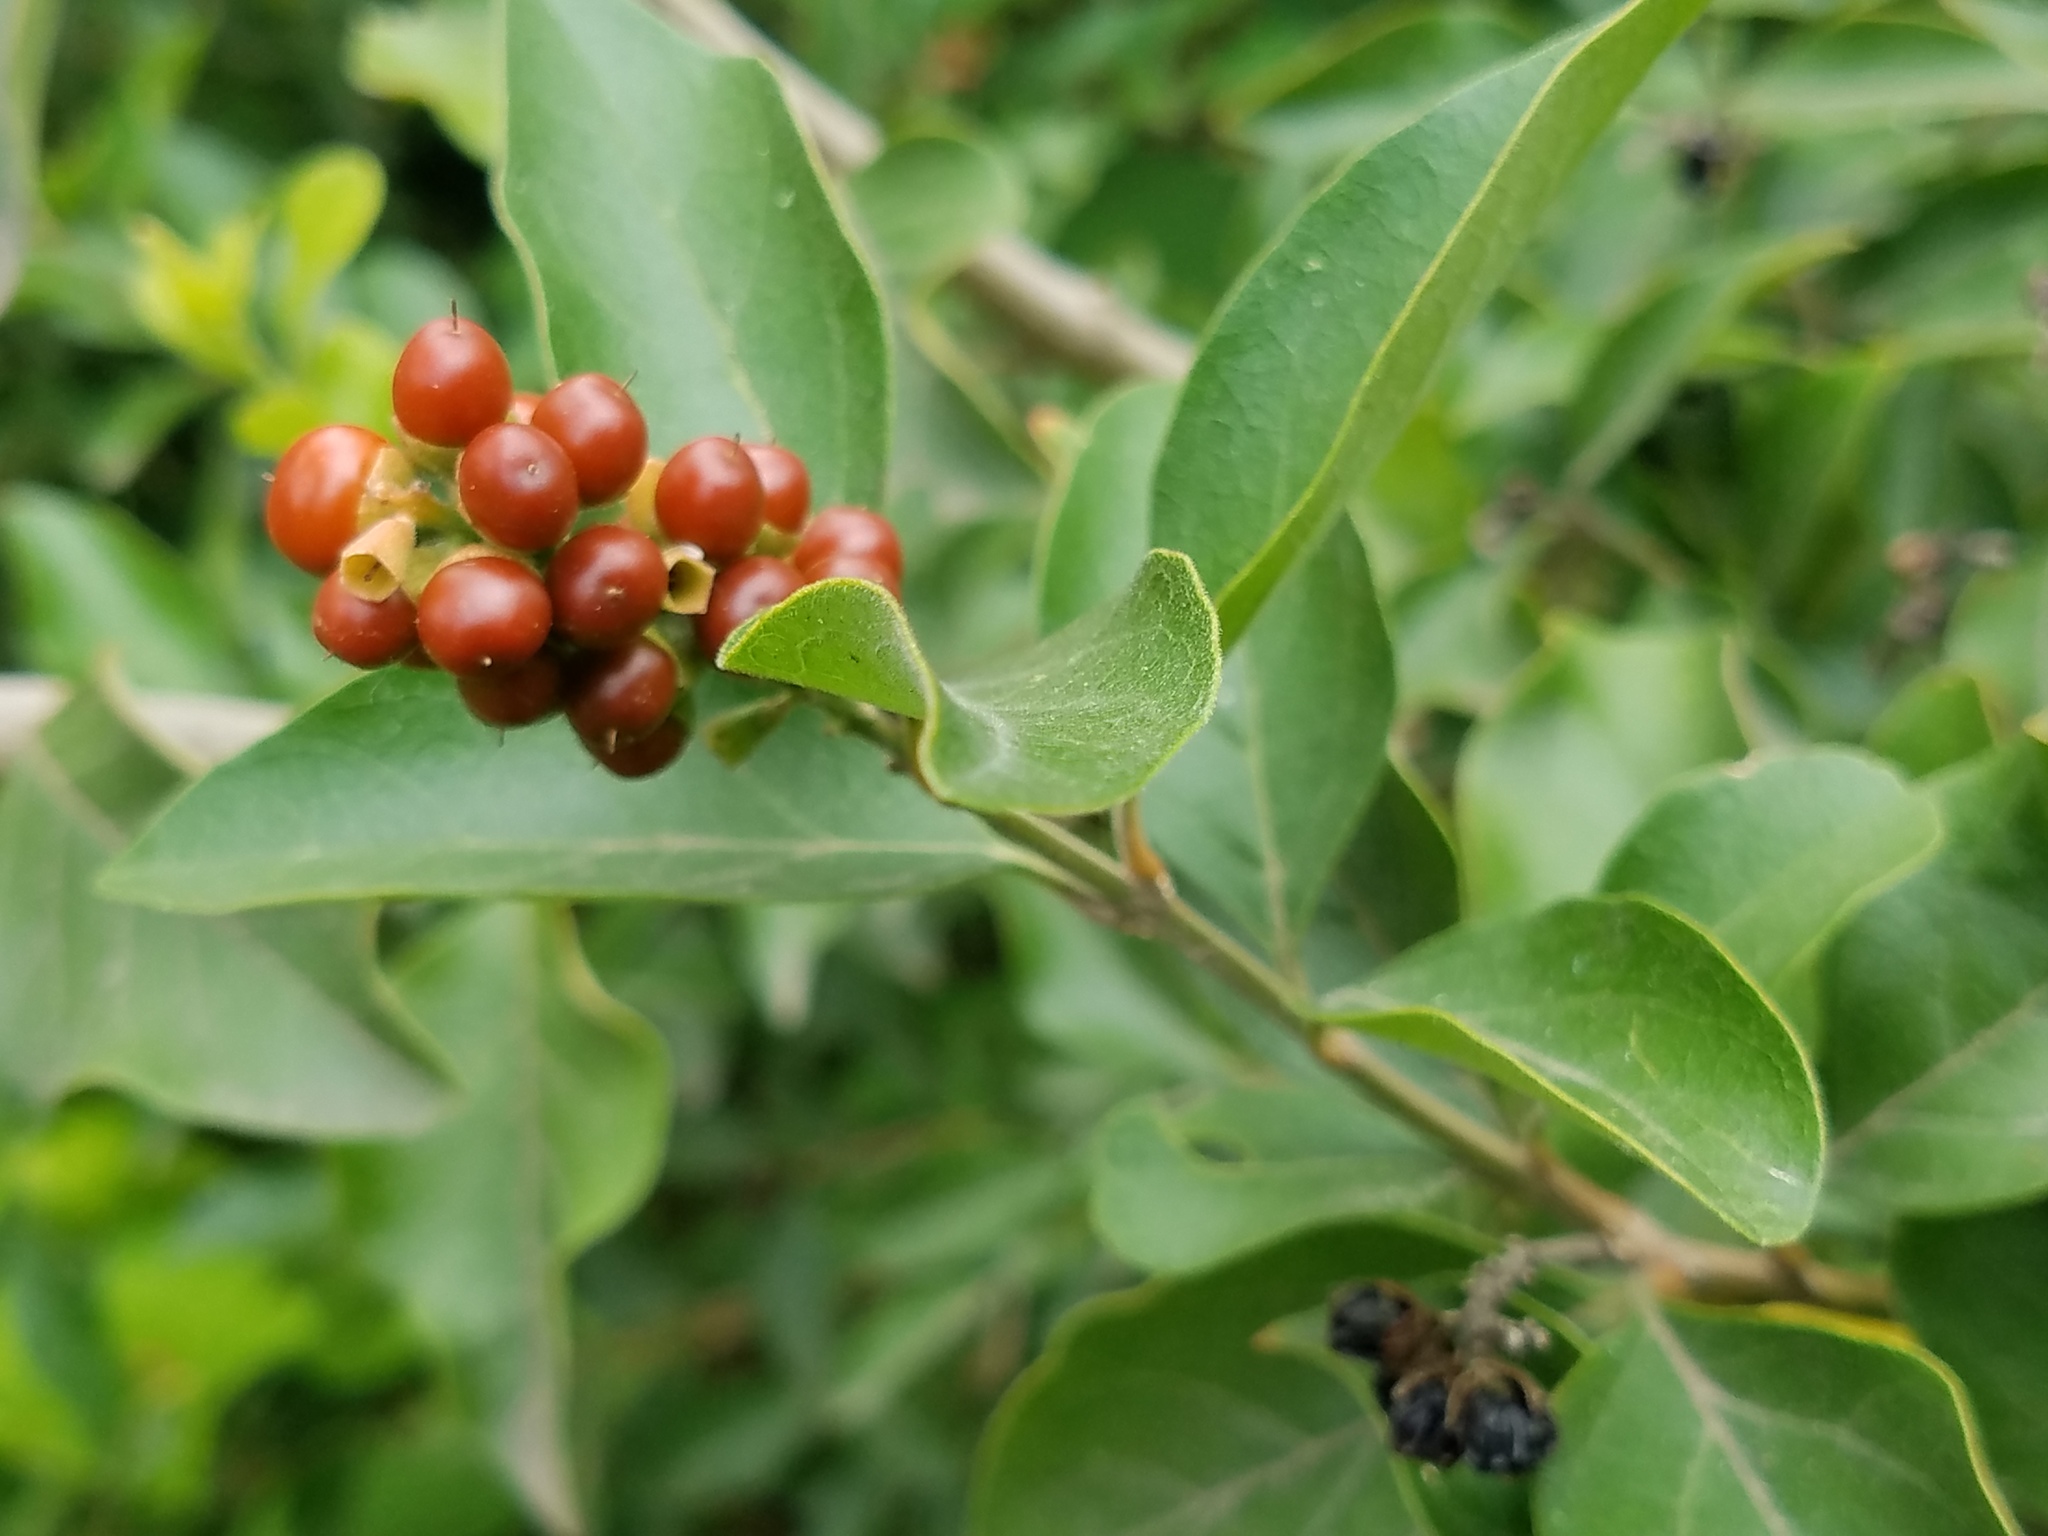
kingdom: Plantae
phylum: Tracheophyta
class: Magnoliopsida
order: Lamiales
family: Verbenaceae
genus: Citharexylum
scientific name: Citharexylum berlandieri
